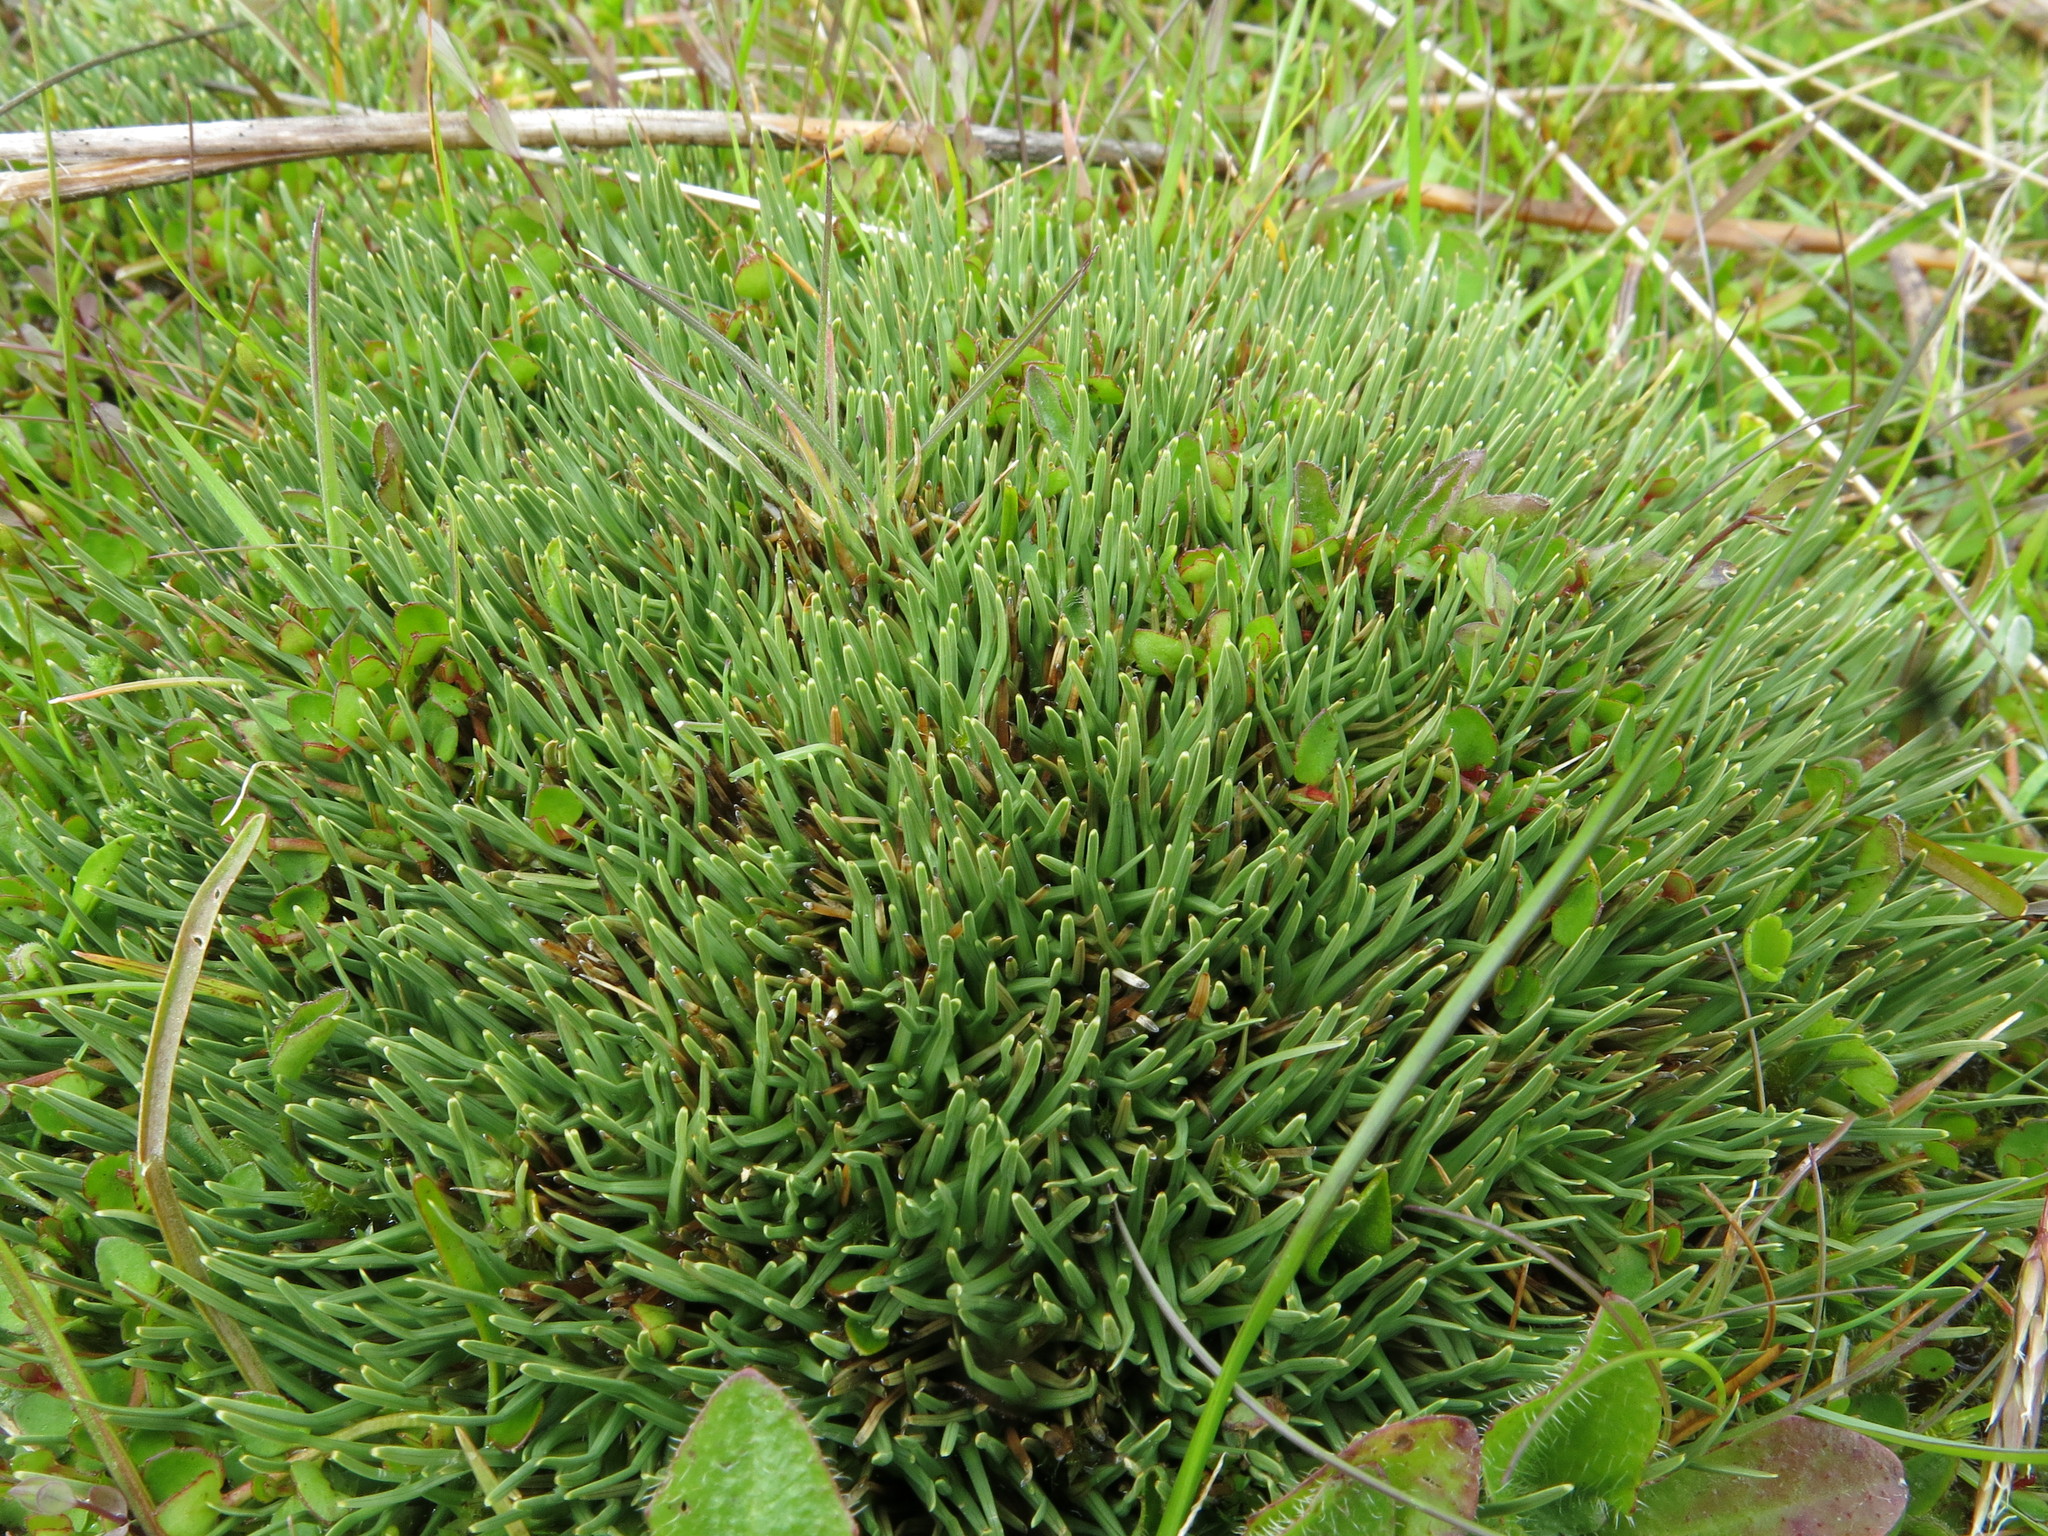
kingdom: Plantae
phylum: Tracheophyta
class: Liliopsida
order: Poales
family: Cyperaceae
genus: Oreobolus
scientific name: Oreobolus pectinatus
